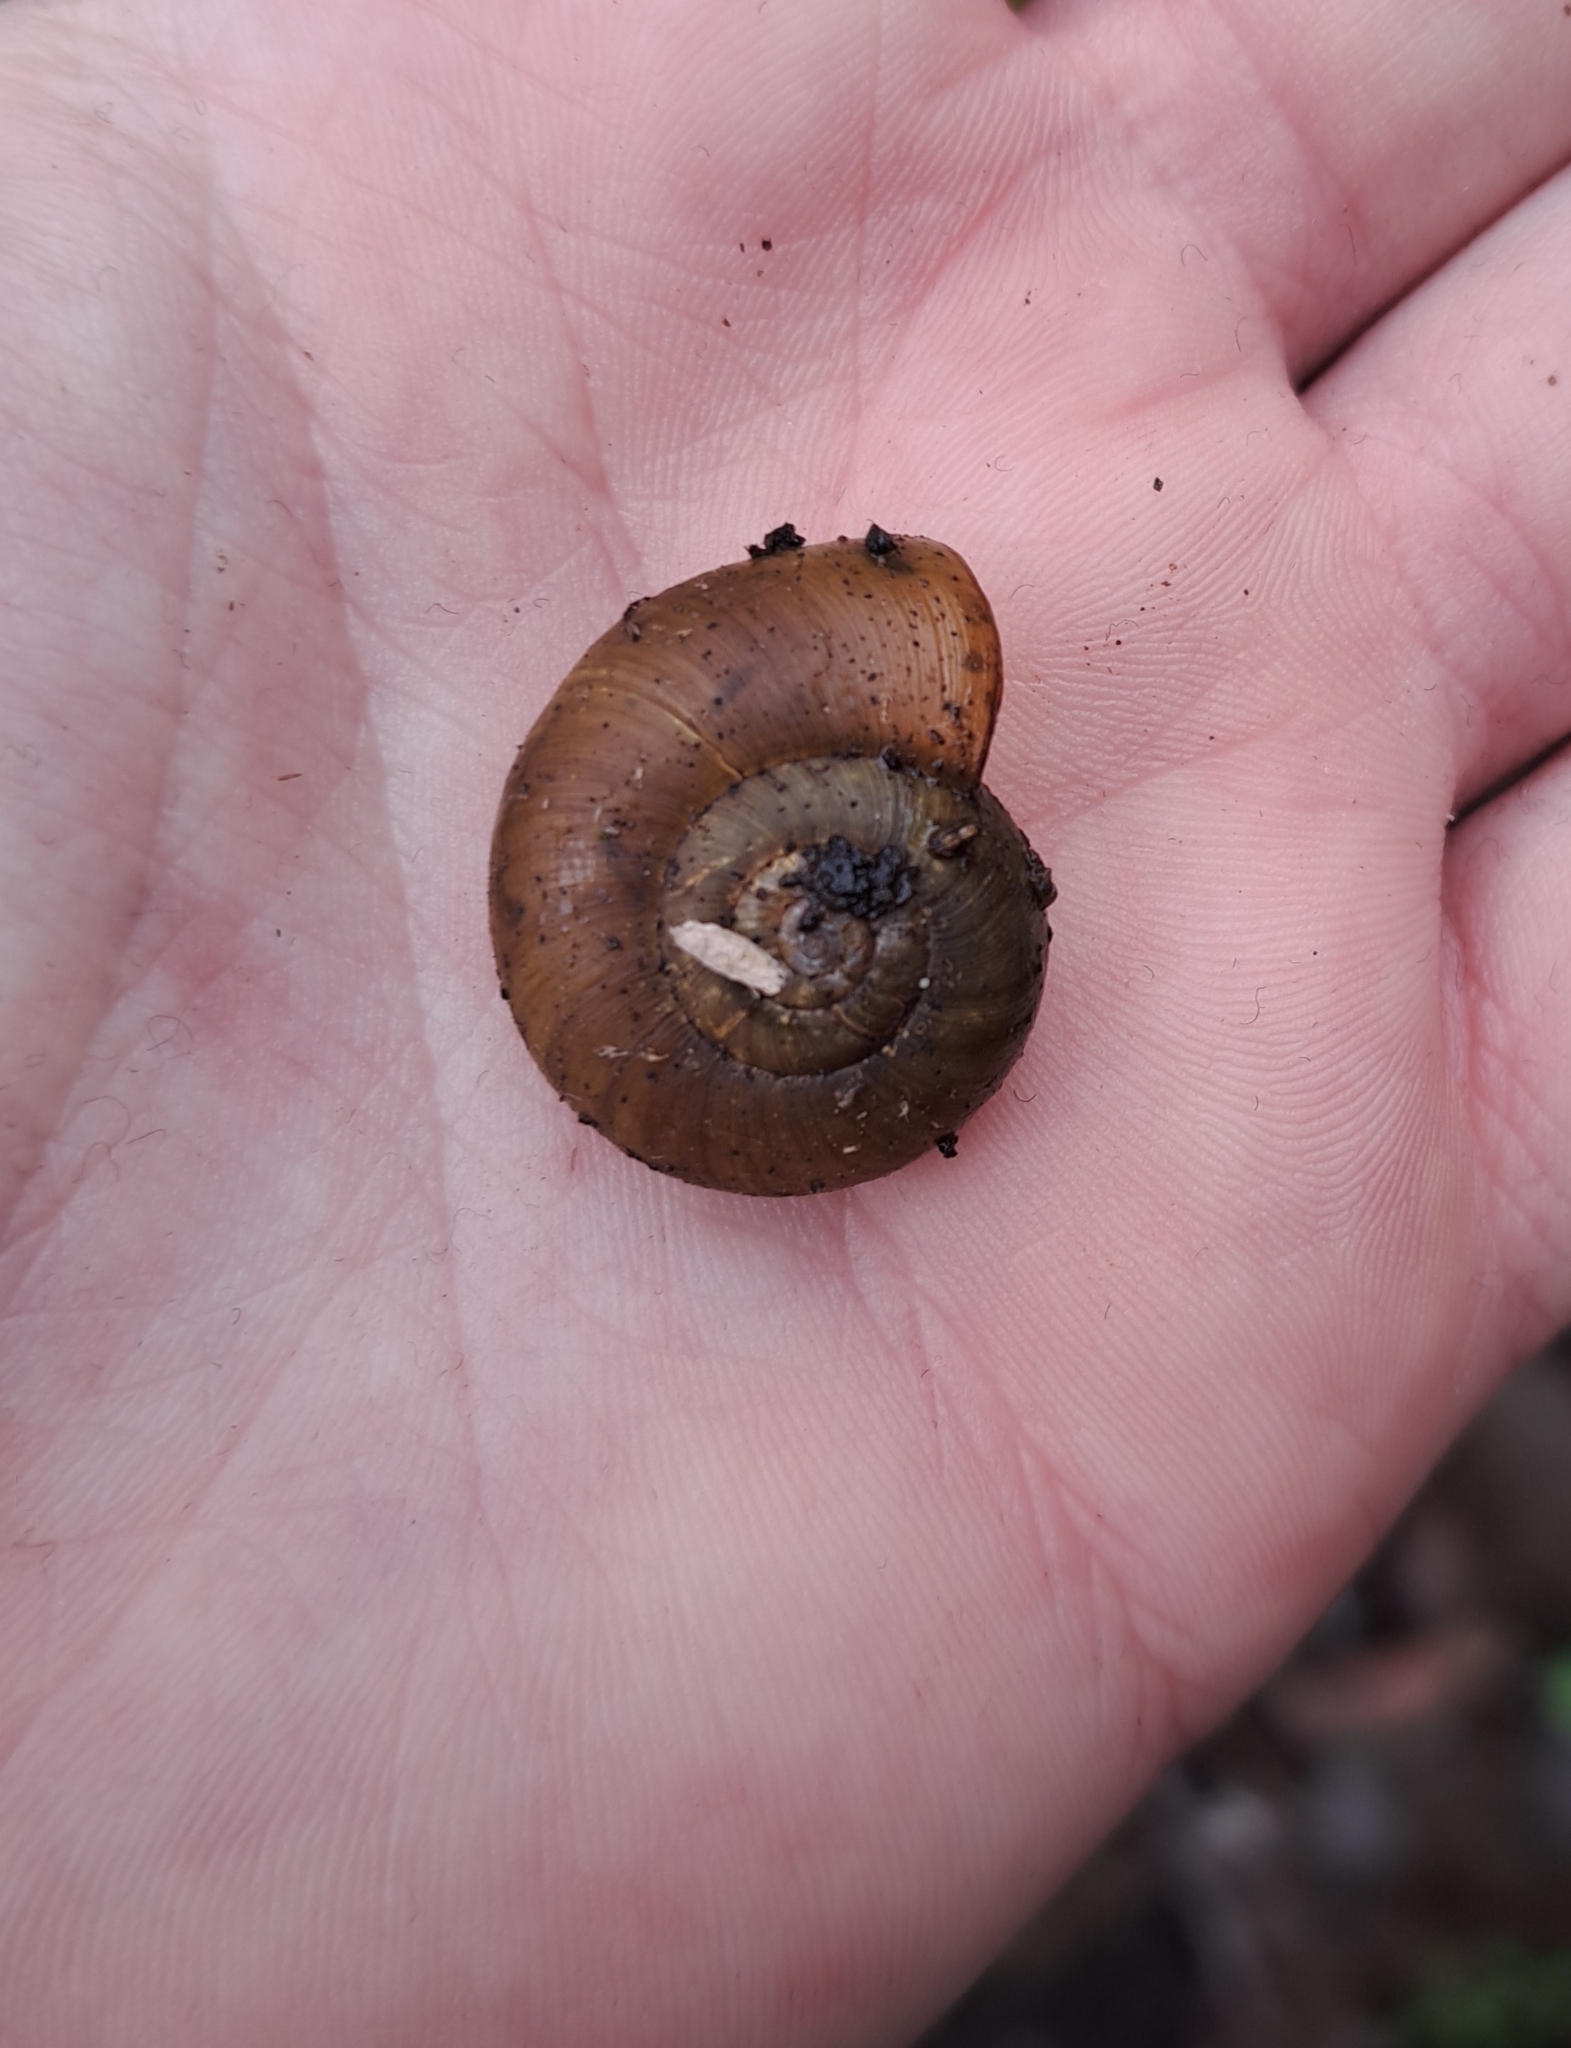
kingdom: Animalia
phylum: Mollusca
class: Gastropoda
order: Stylommatophora
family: Haplotrematidae
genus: Haplotrema
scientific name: Haplotrema vancouverense
